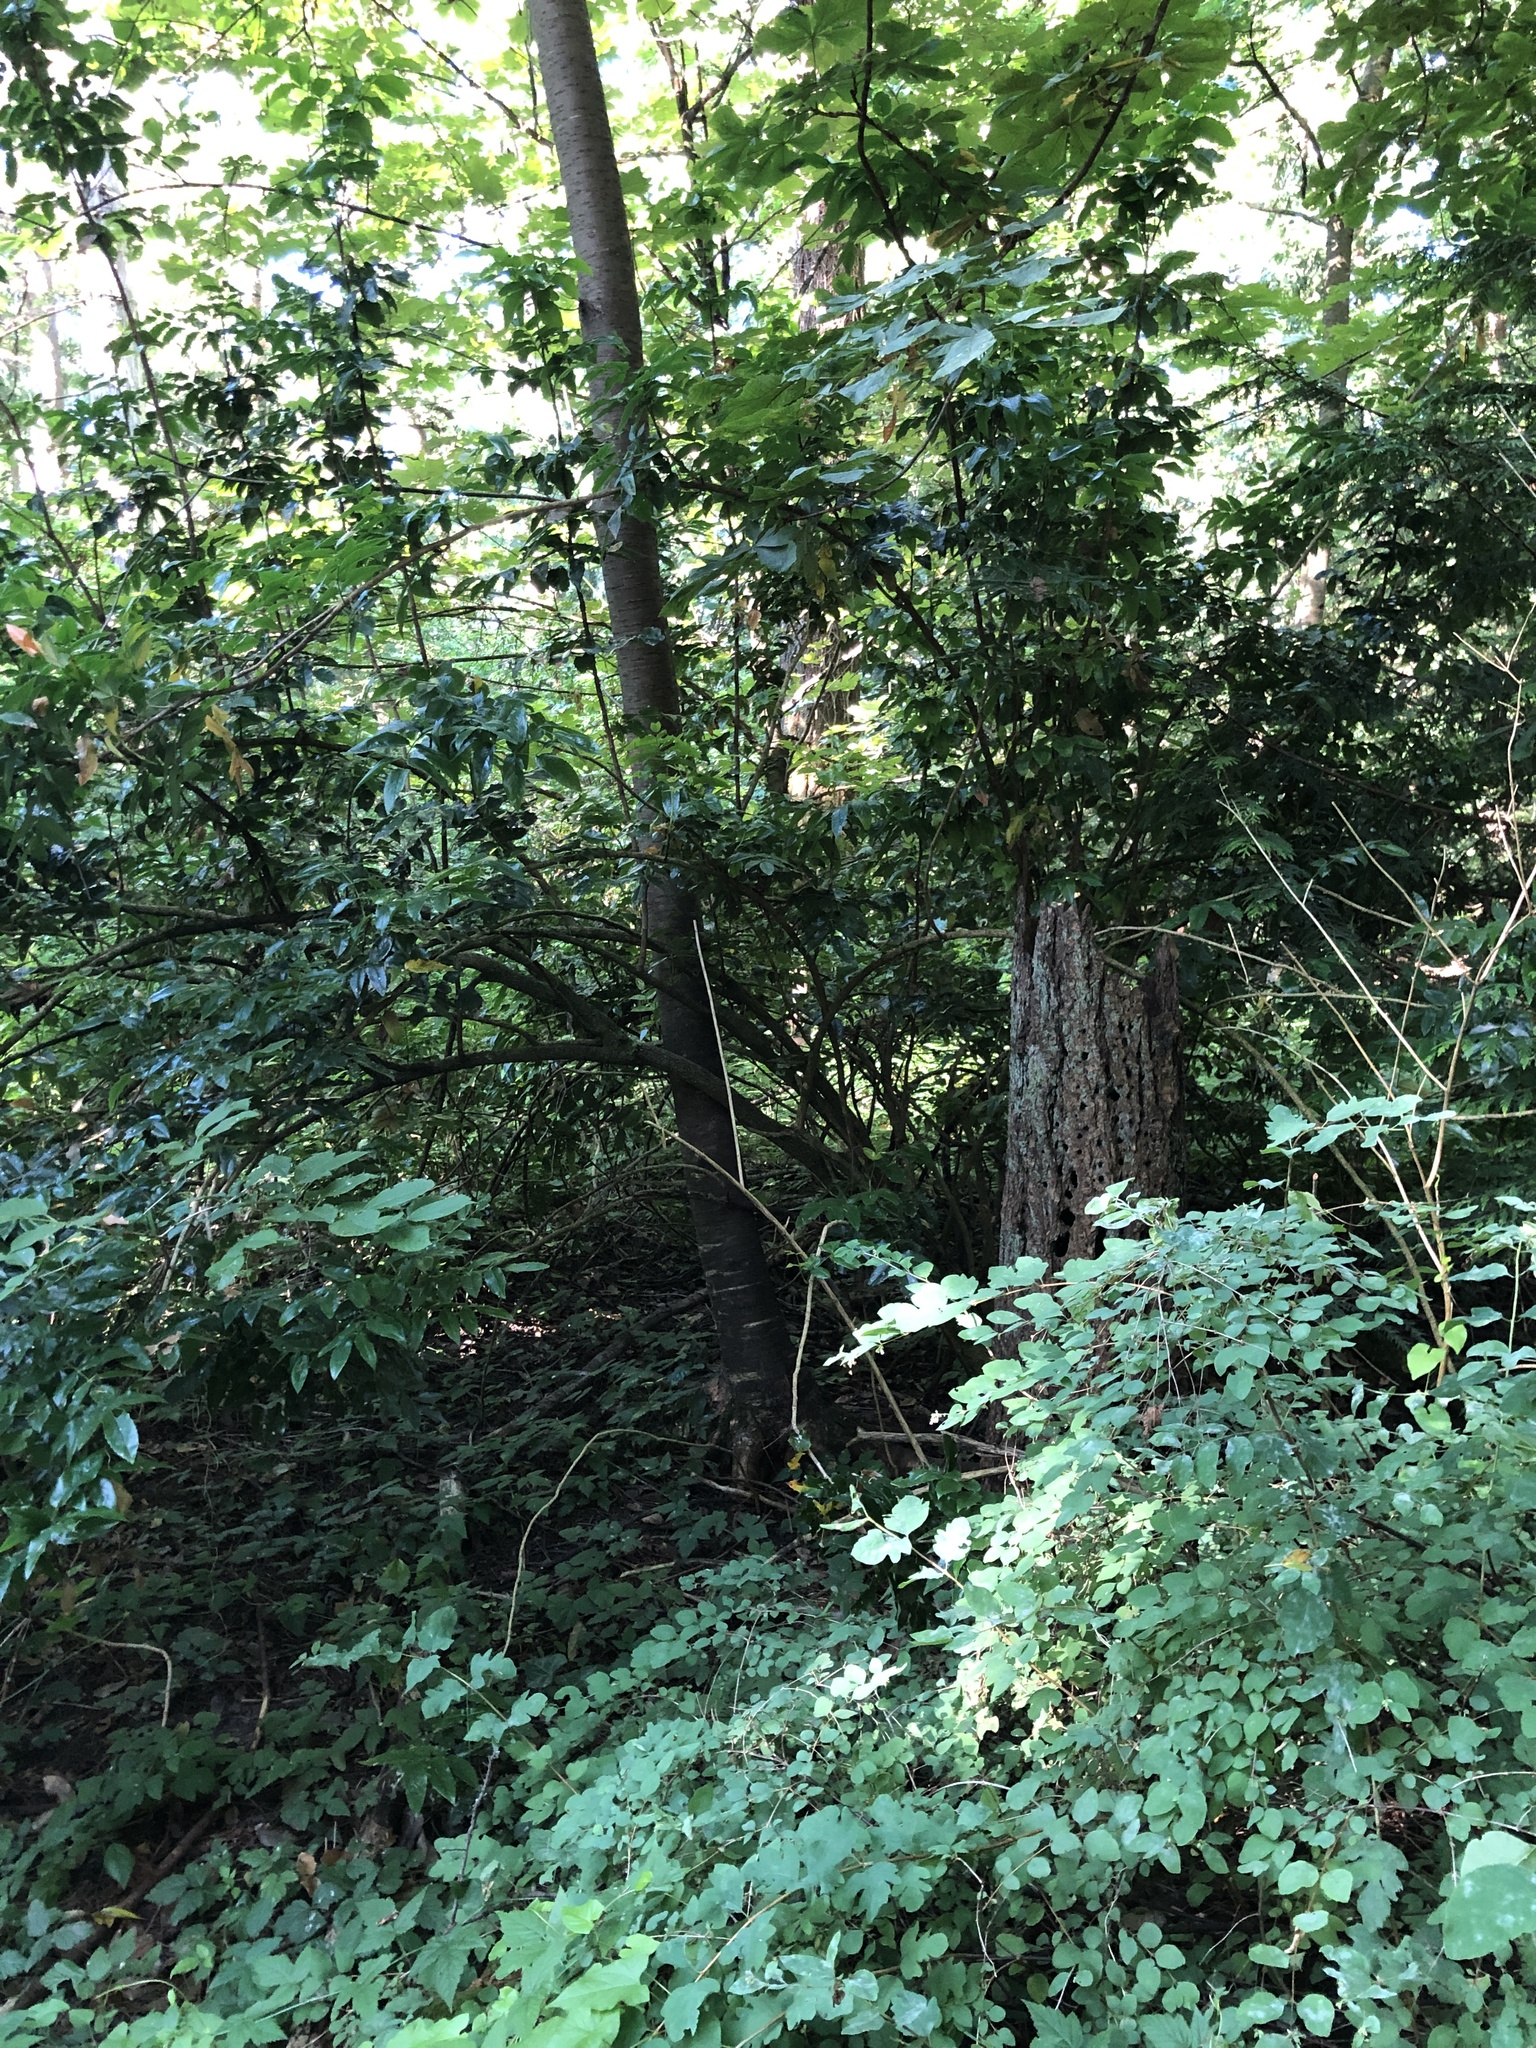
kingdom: Plantae
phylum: Tracheophyta
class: Magnoliopsida
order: Ranunculales
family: Berberidaceae
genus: Mahonia
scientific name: Mahonia aquifolium
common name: Oregon-grape
